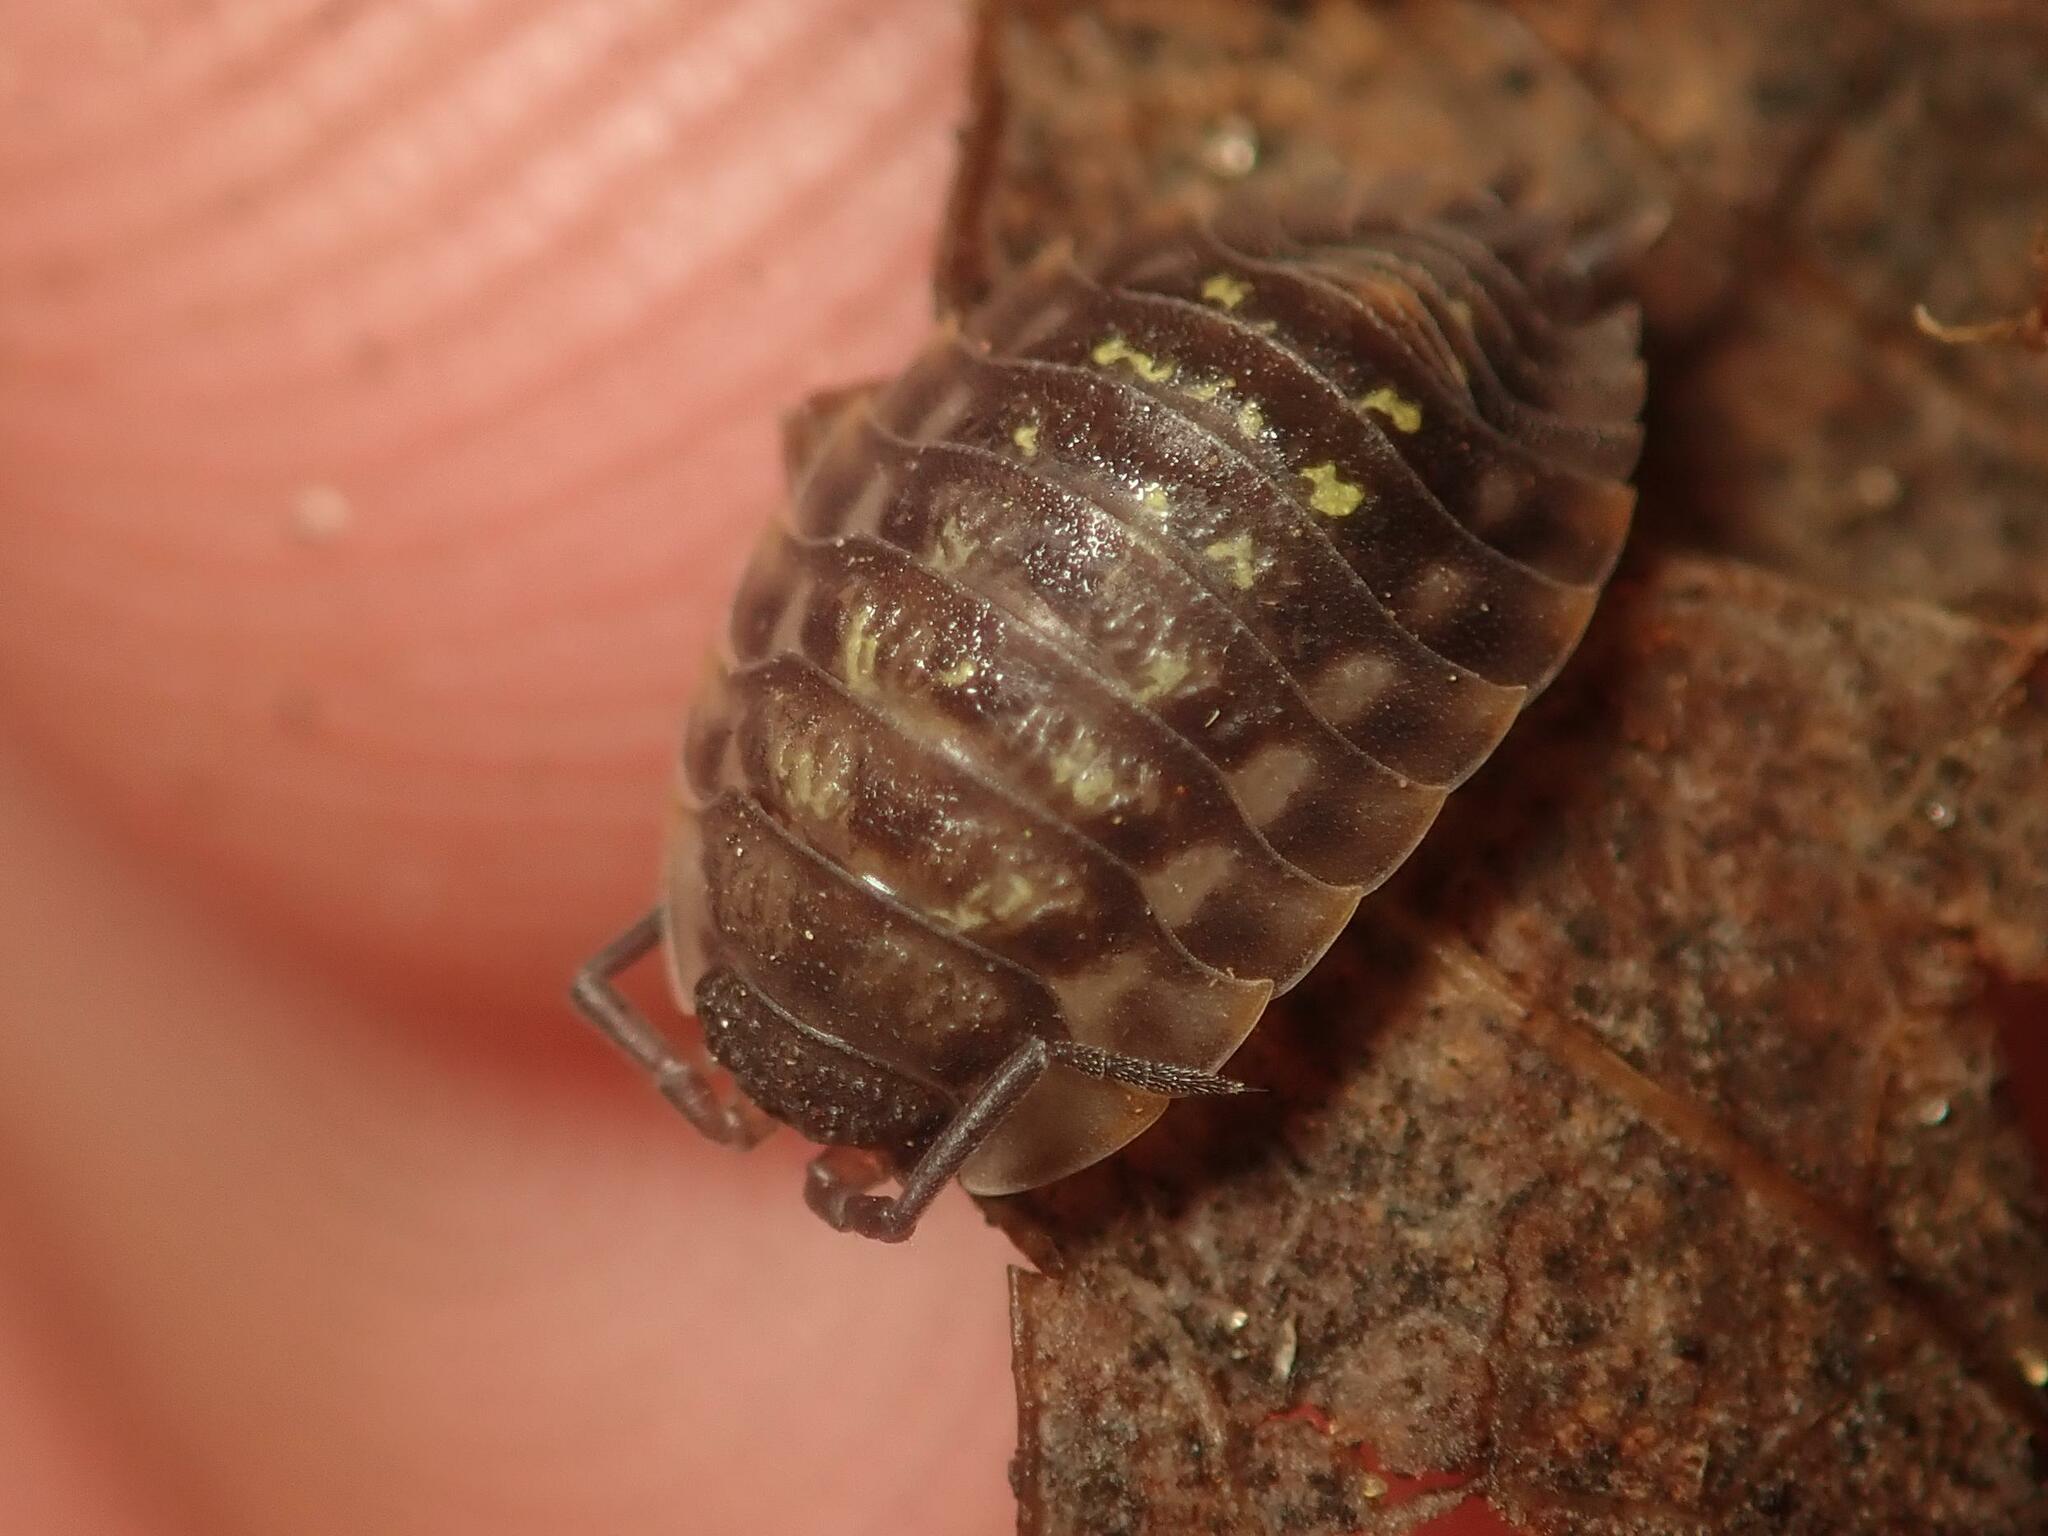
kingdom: Animalia
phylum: Arthropoda
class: Malacostraca
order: Isopoda
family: Oniscidae
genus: Oniscus
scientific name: Oniscus asellus
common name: Common shiny woodlouse
